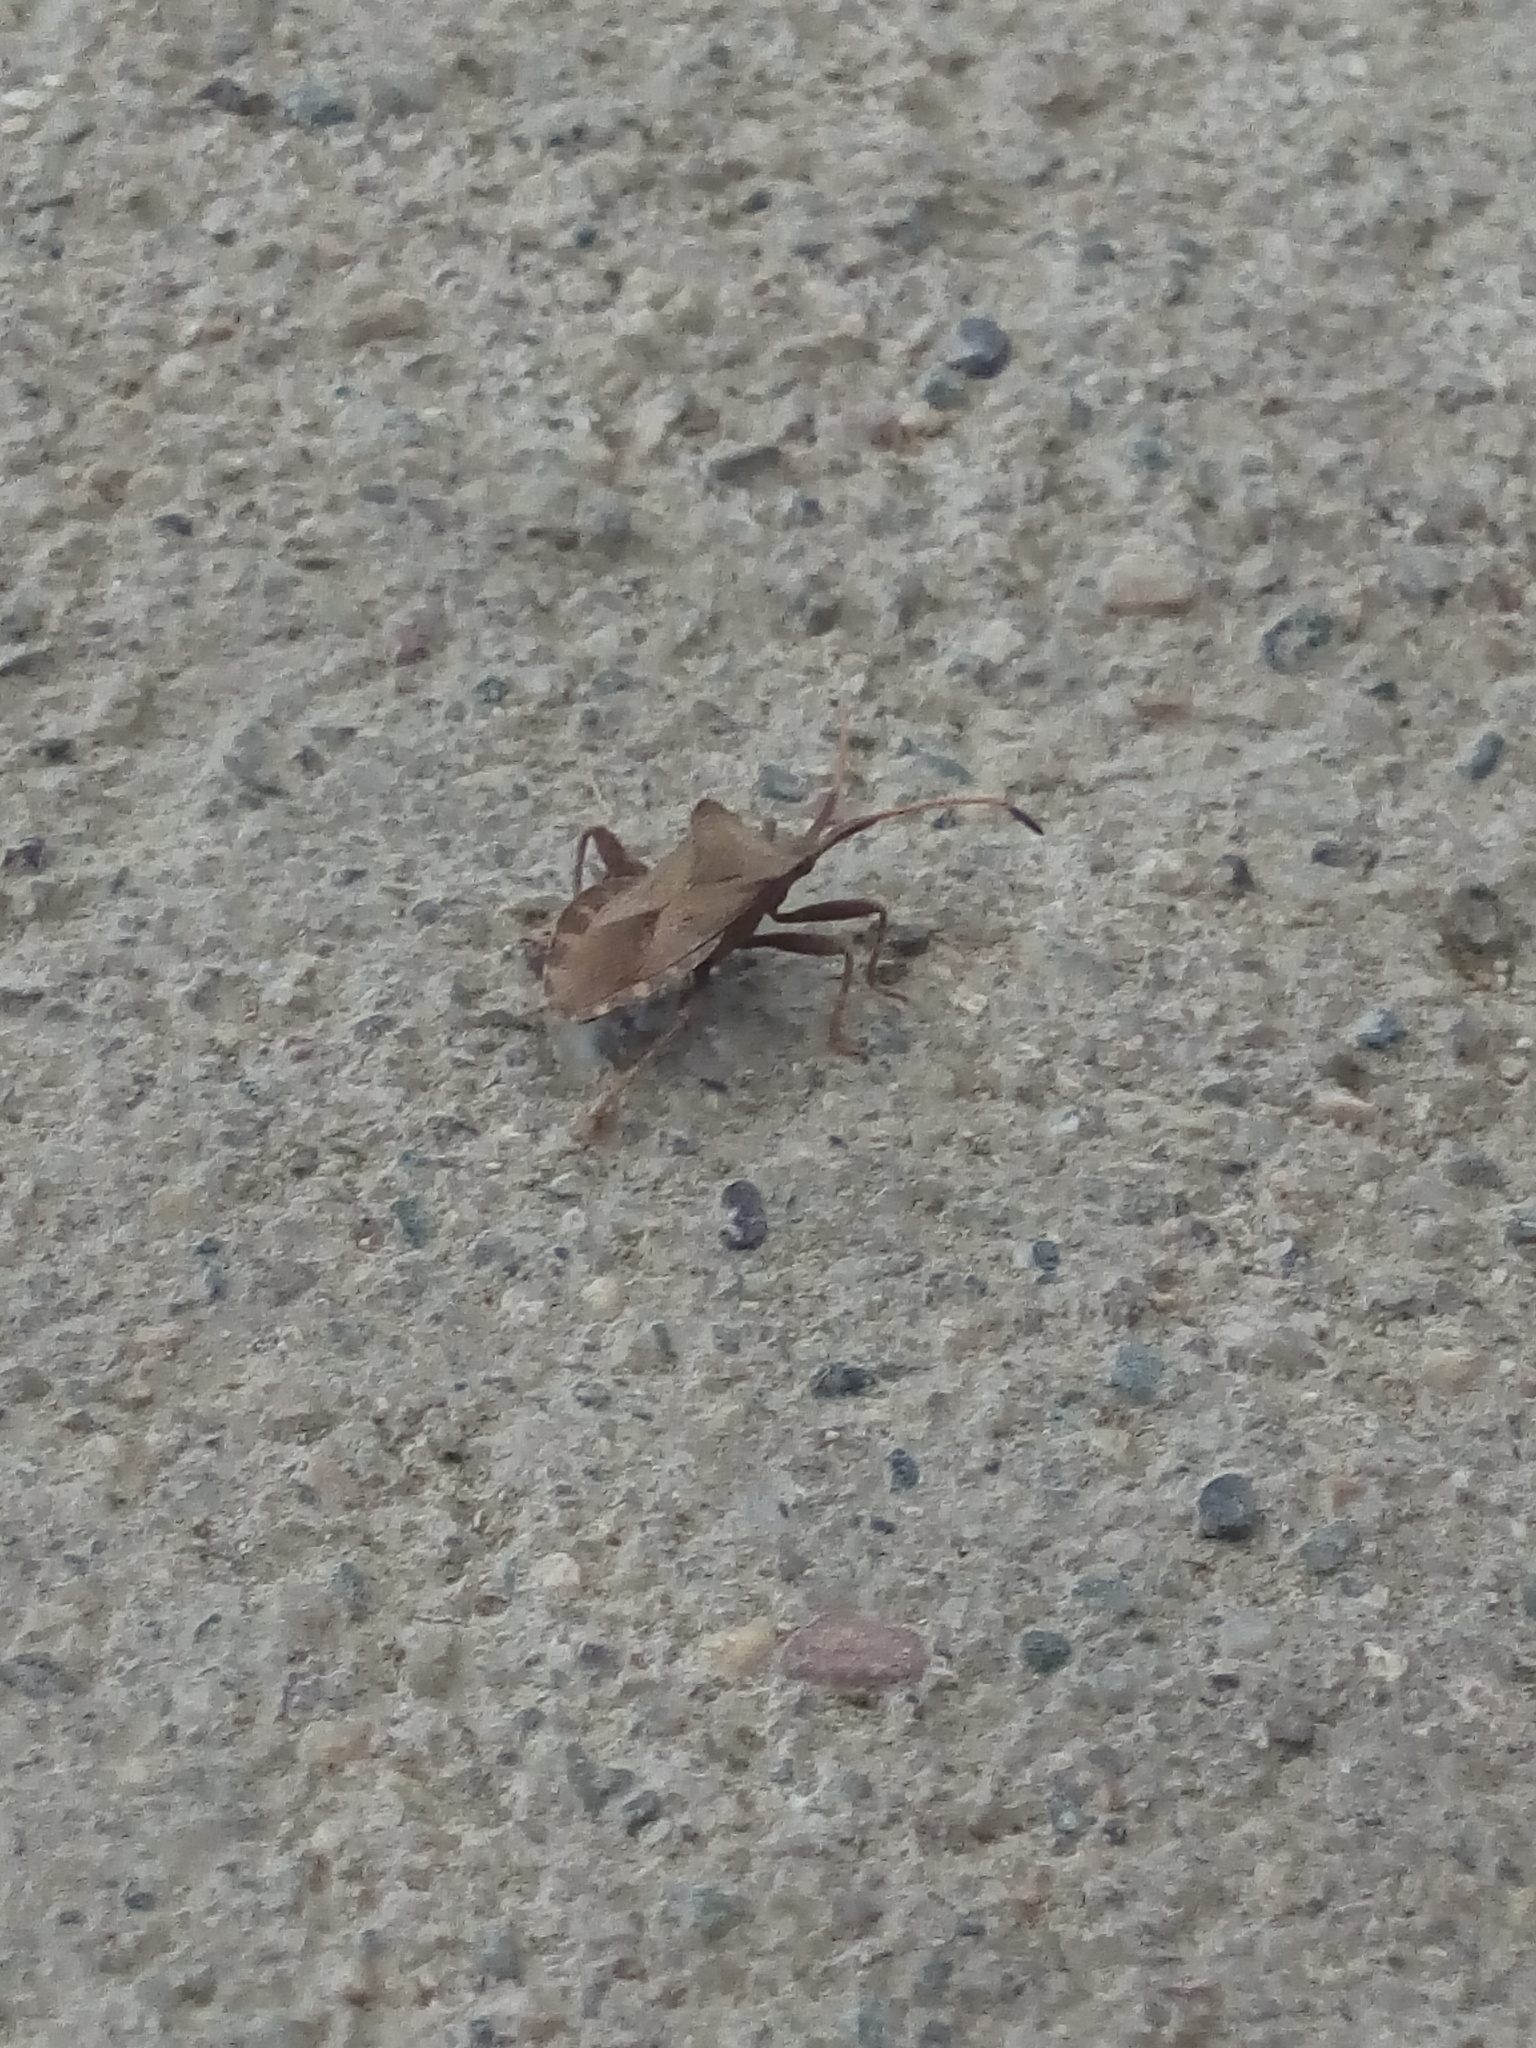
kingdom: Animalia
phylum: Arthropoda
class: Insecta
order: Hemiptera
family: Coreidae
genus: Coreus
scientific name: Coreus marginatus
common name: Dock bug
